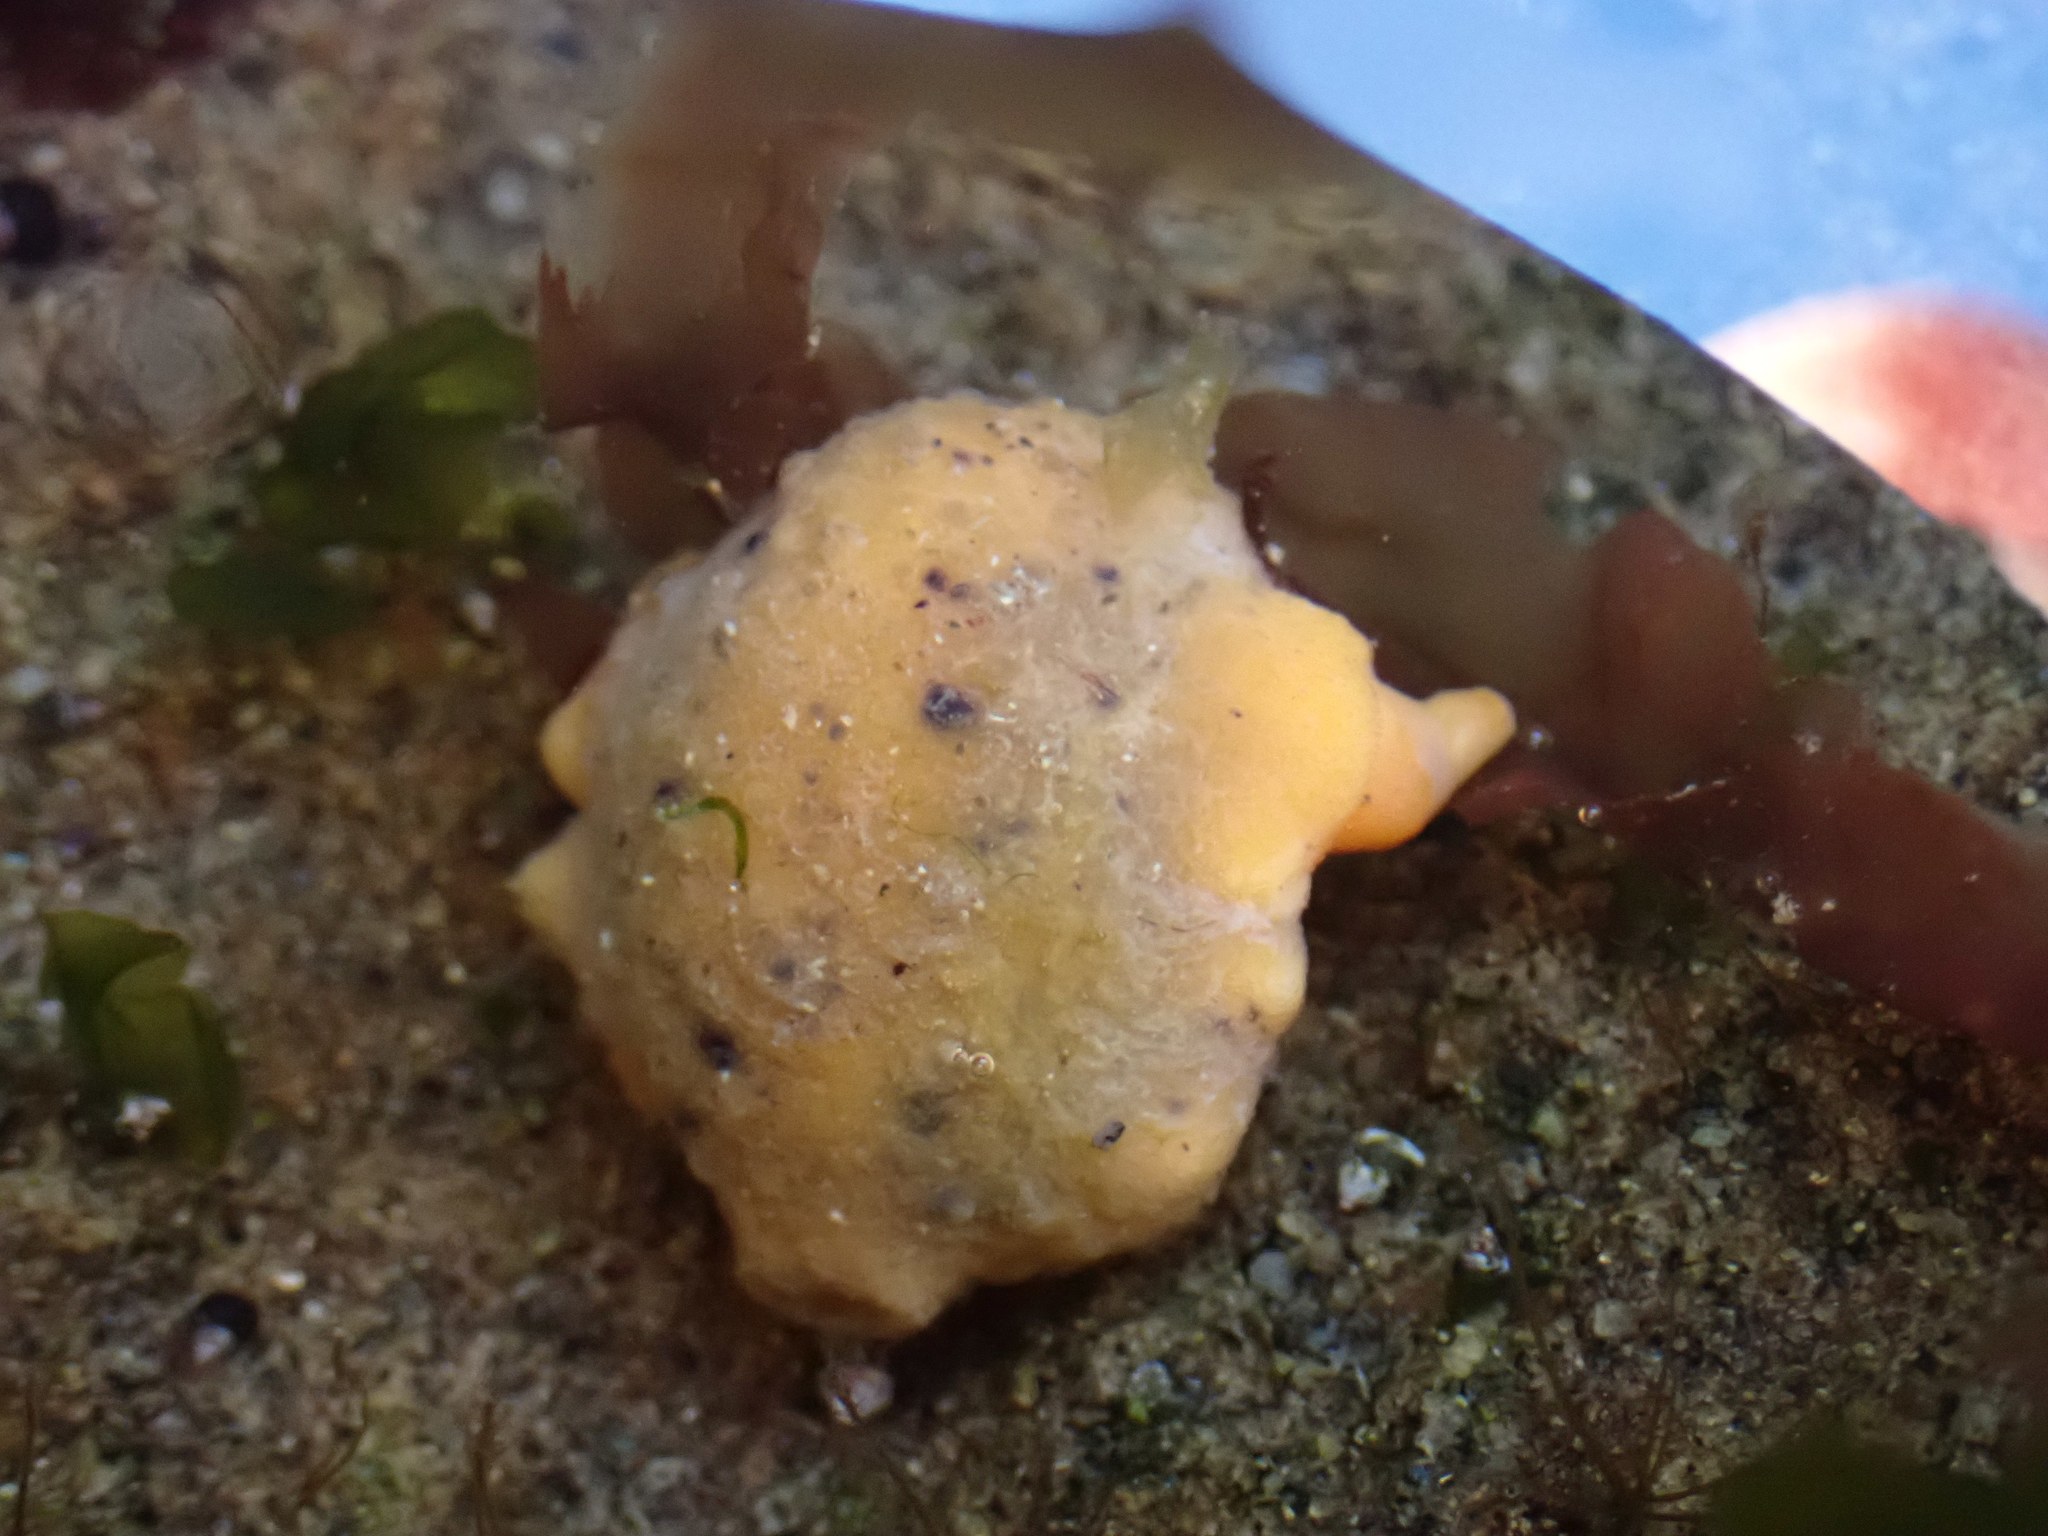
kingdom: Animalia
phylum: Mollusca
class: Gastropoda
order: Nudibranchia
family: Discodorididae
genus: Geitodoris
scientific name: Geitodoris heathi
